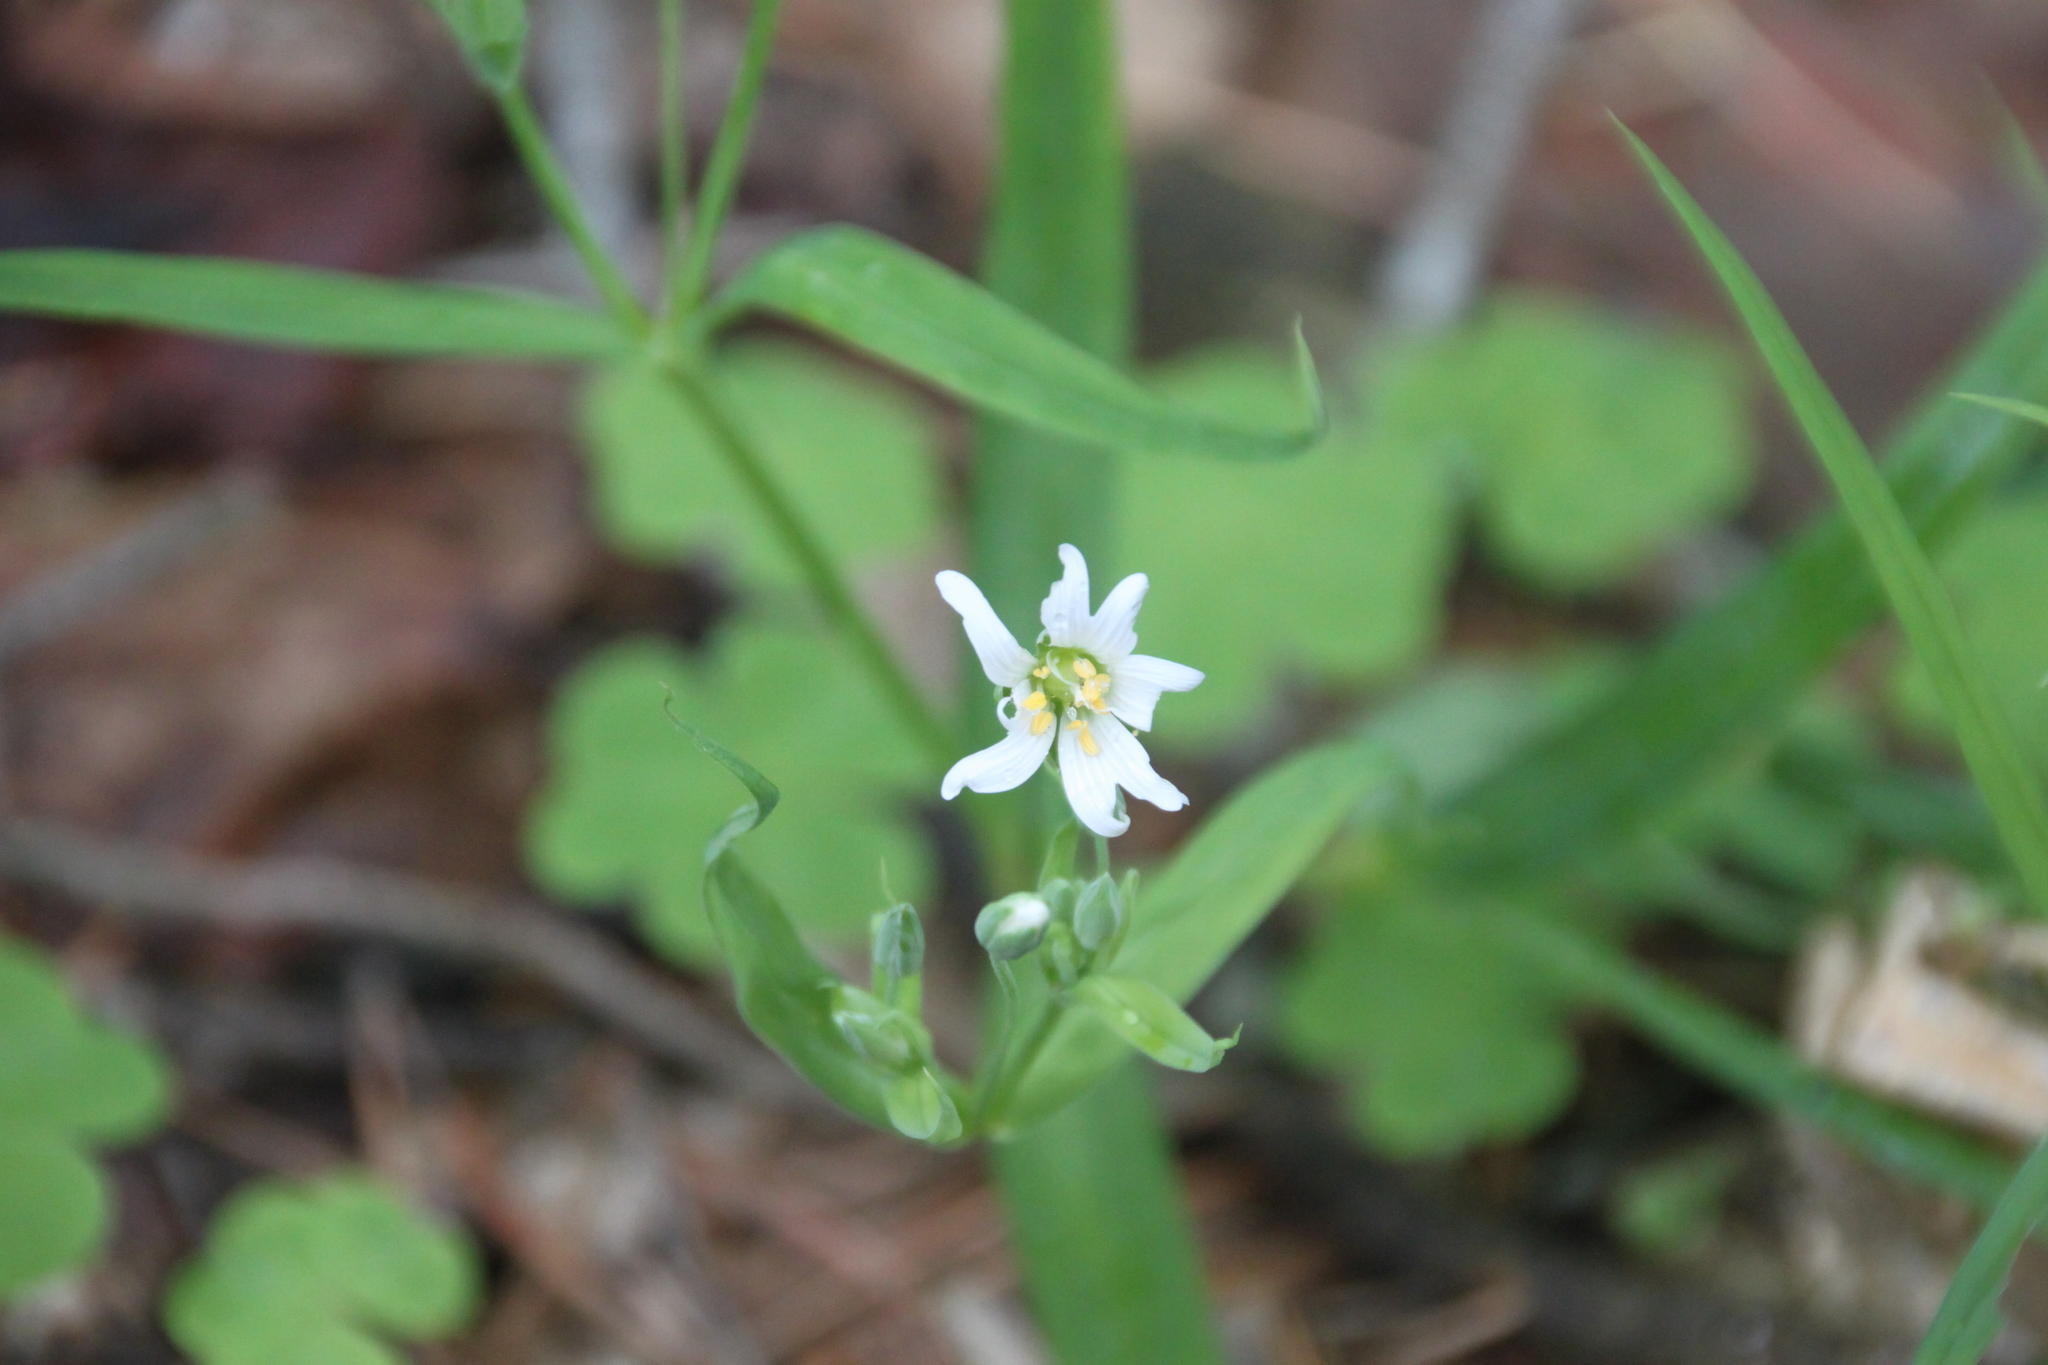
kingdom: Plantae
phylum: Tracheophyta
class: Magnoliopsida
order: Caryophyllales
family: Caryophyllaceae
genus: Rabelera
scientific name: Rabelera holostea
